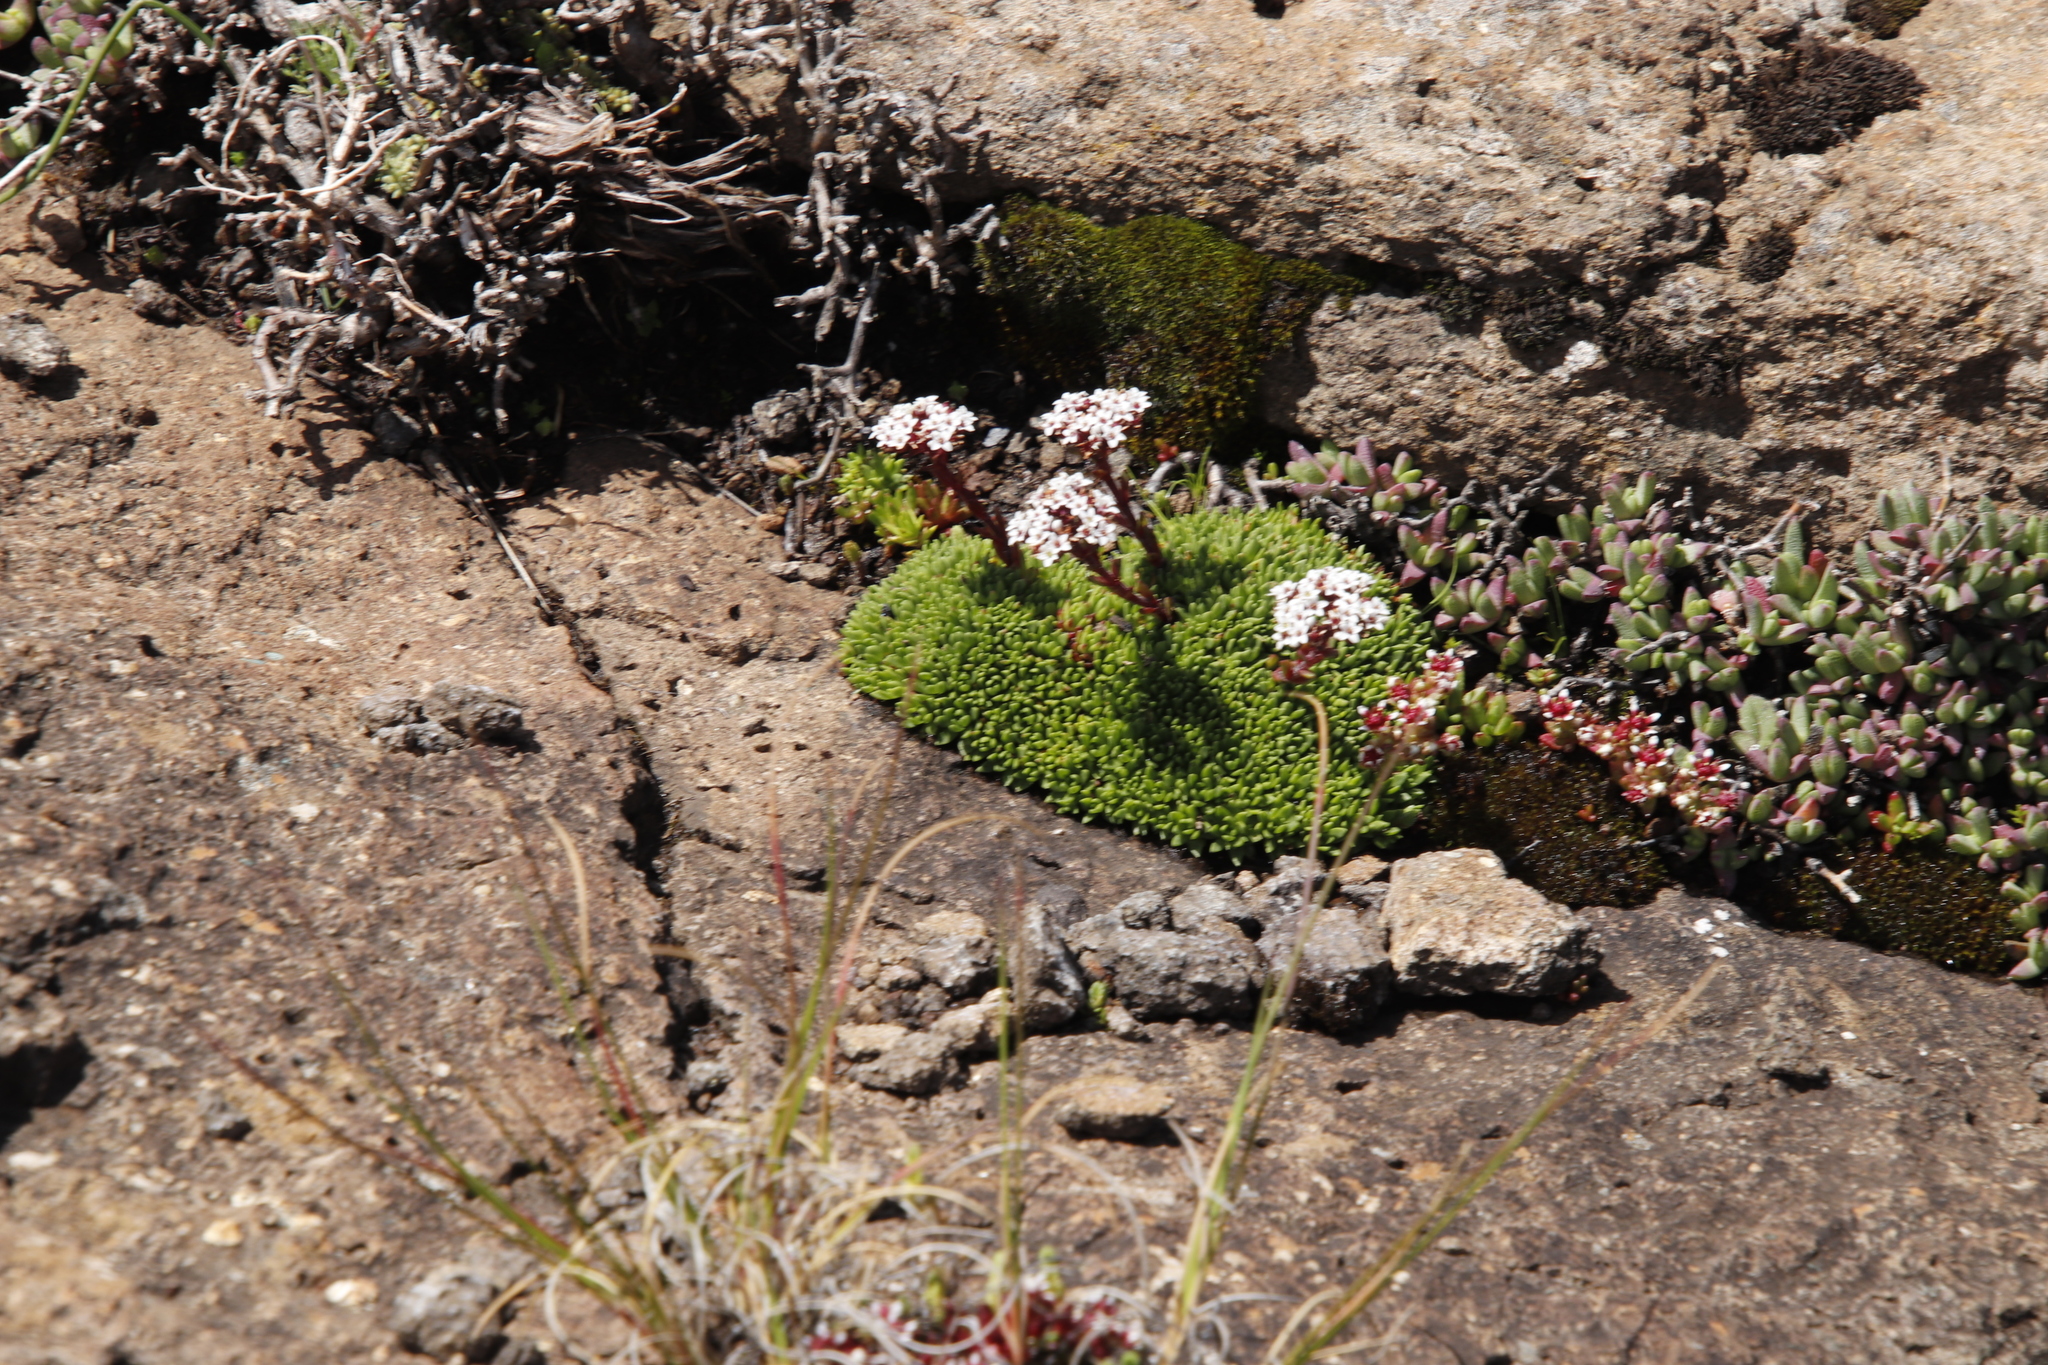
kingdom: Plantae
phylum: Tracheophyta
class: Magnoliopsida
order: Saxifragales
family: Crassulaceae
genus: Crassula
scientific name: Crassula setulosa
